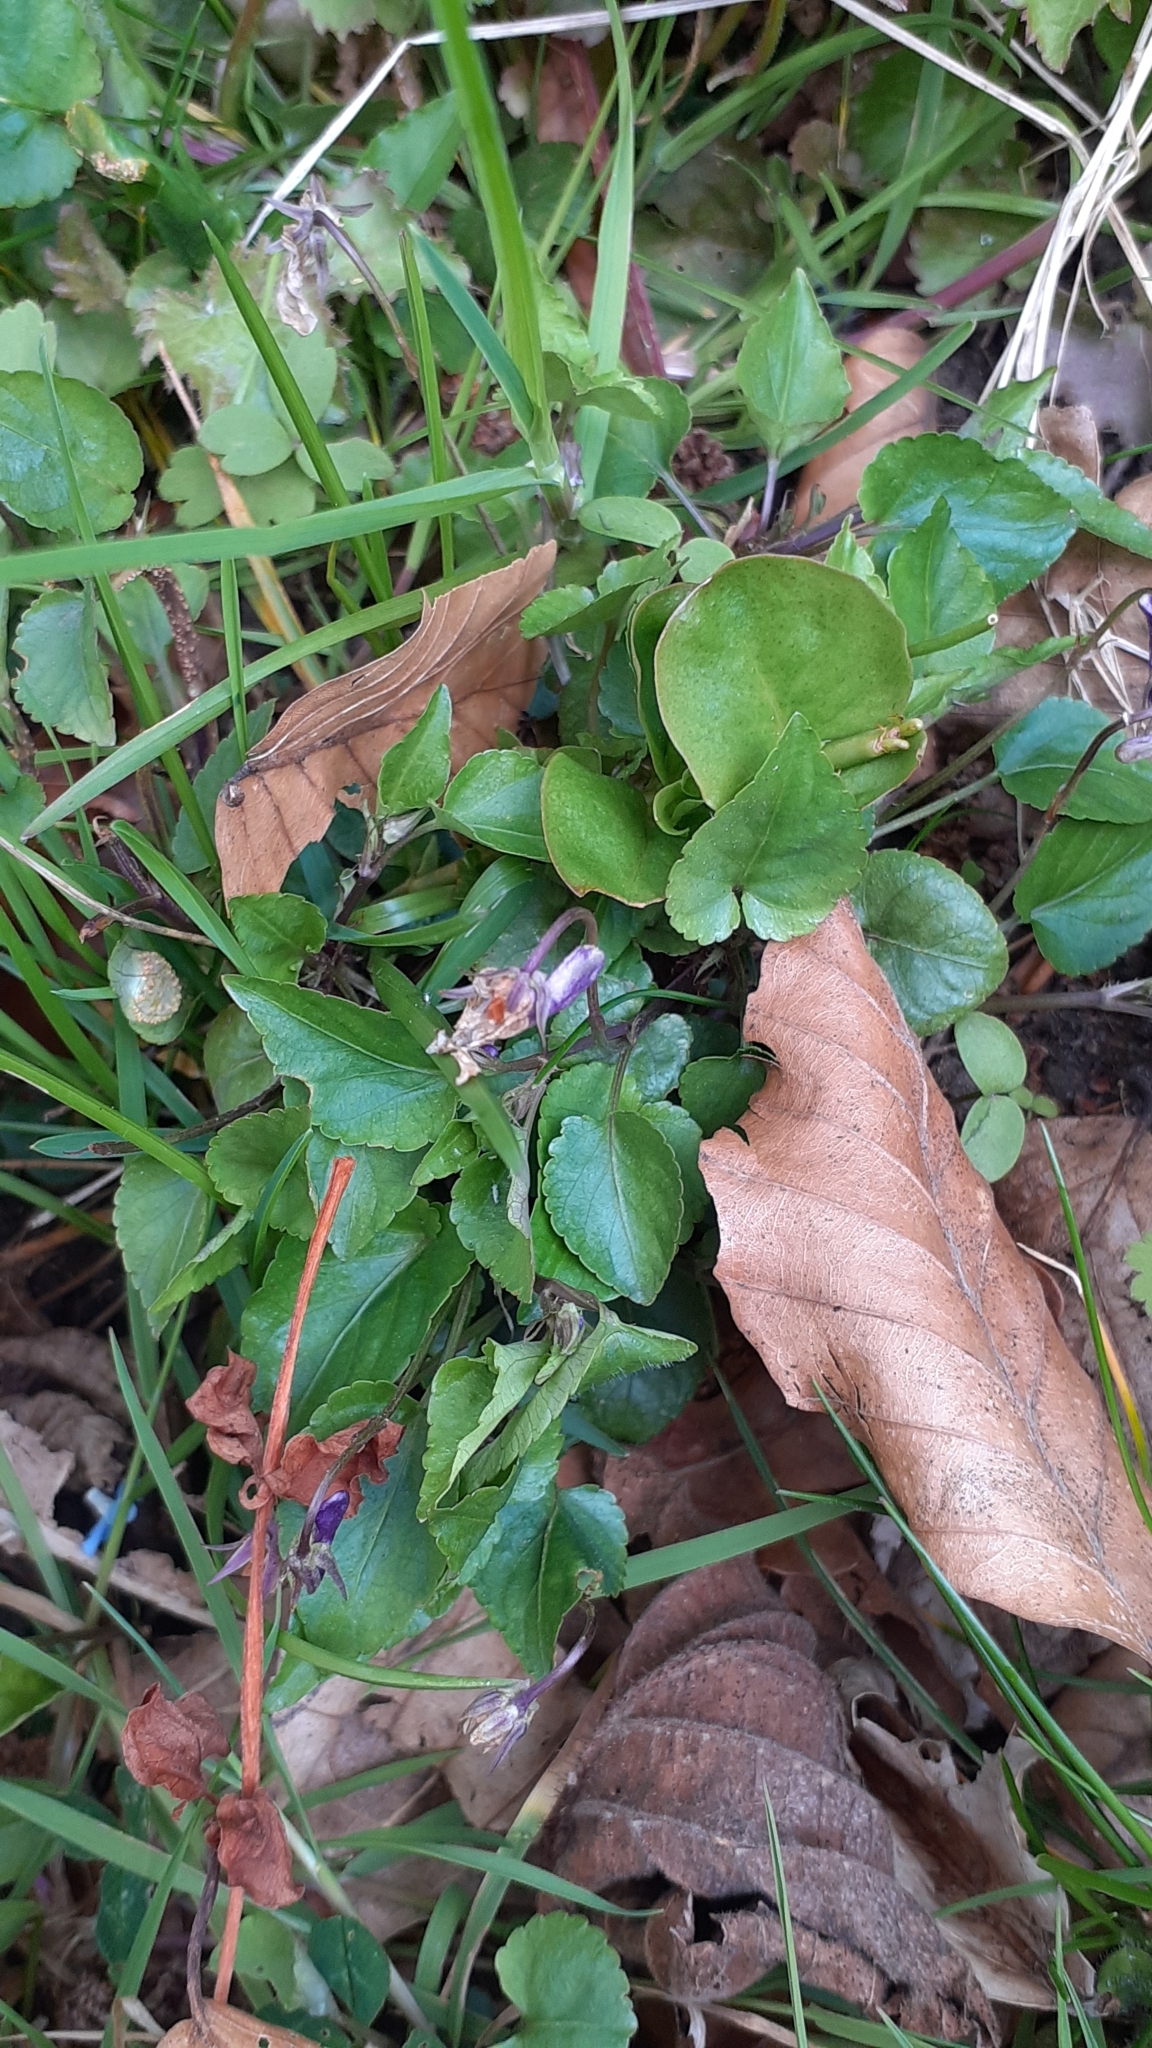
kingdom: Plantae
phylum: Tracheophyta
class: Magnoliopsida
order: Malpighiales
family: Violaceae
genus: Viola
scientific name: Viola reichenbachiana
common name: Early dog-violet
